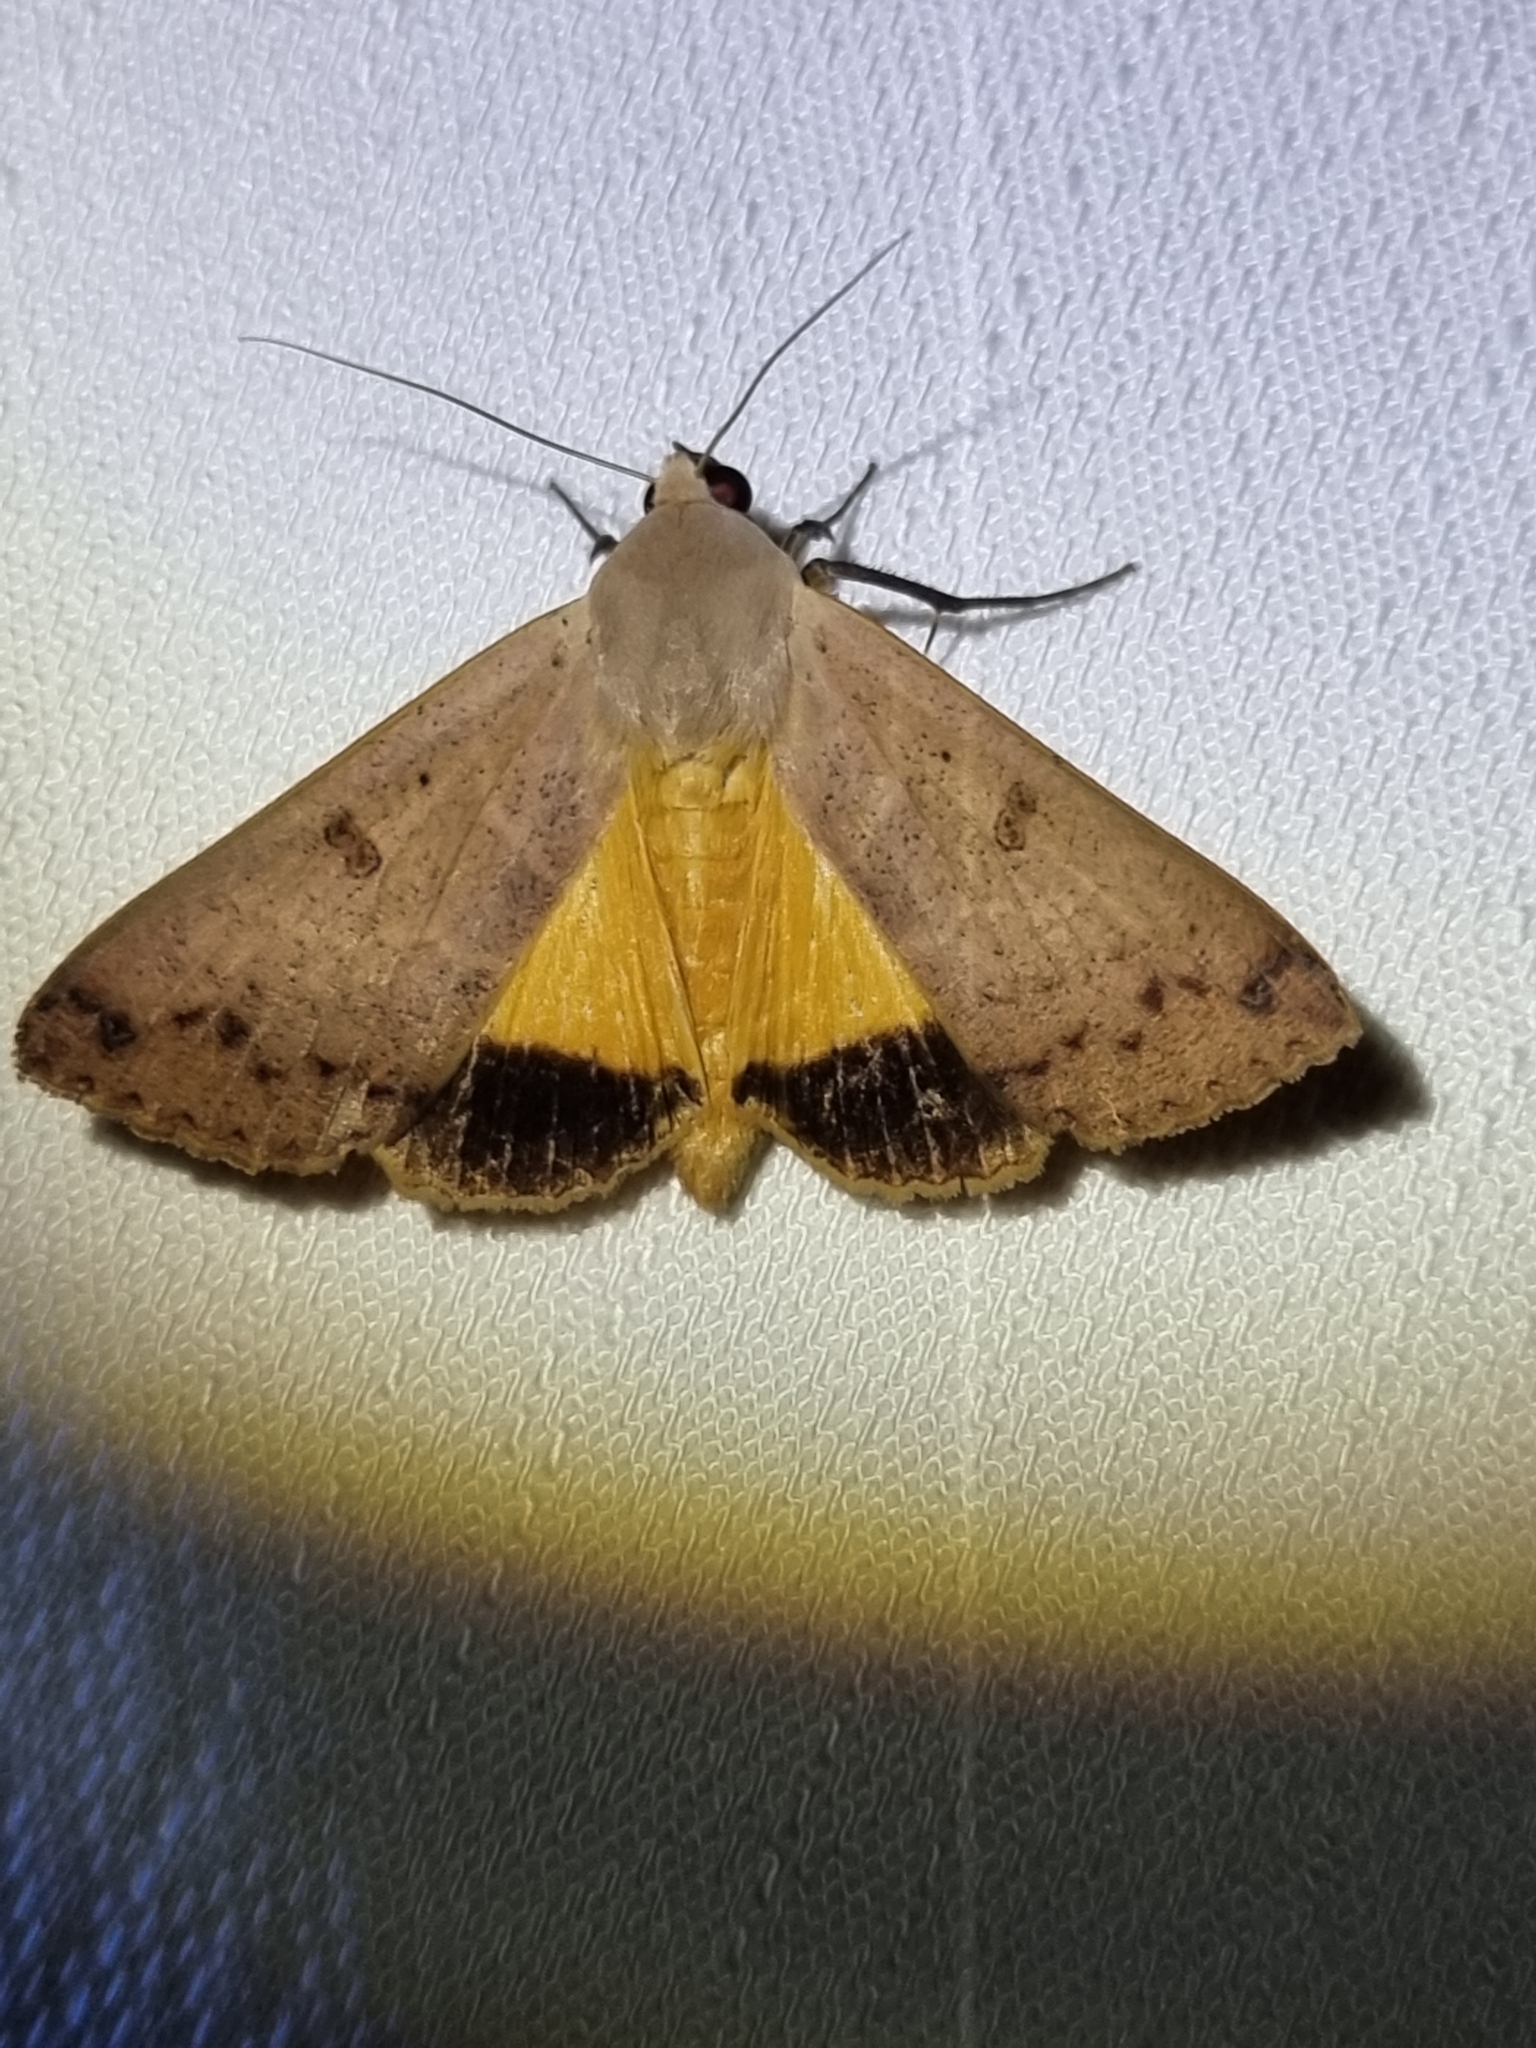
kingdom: Animalia
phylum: Arthropoda
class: Insecta
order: Lepidoptera
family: Erebidae
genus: Ophiusa
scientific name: Ophiusa disjungens
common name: Moth
